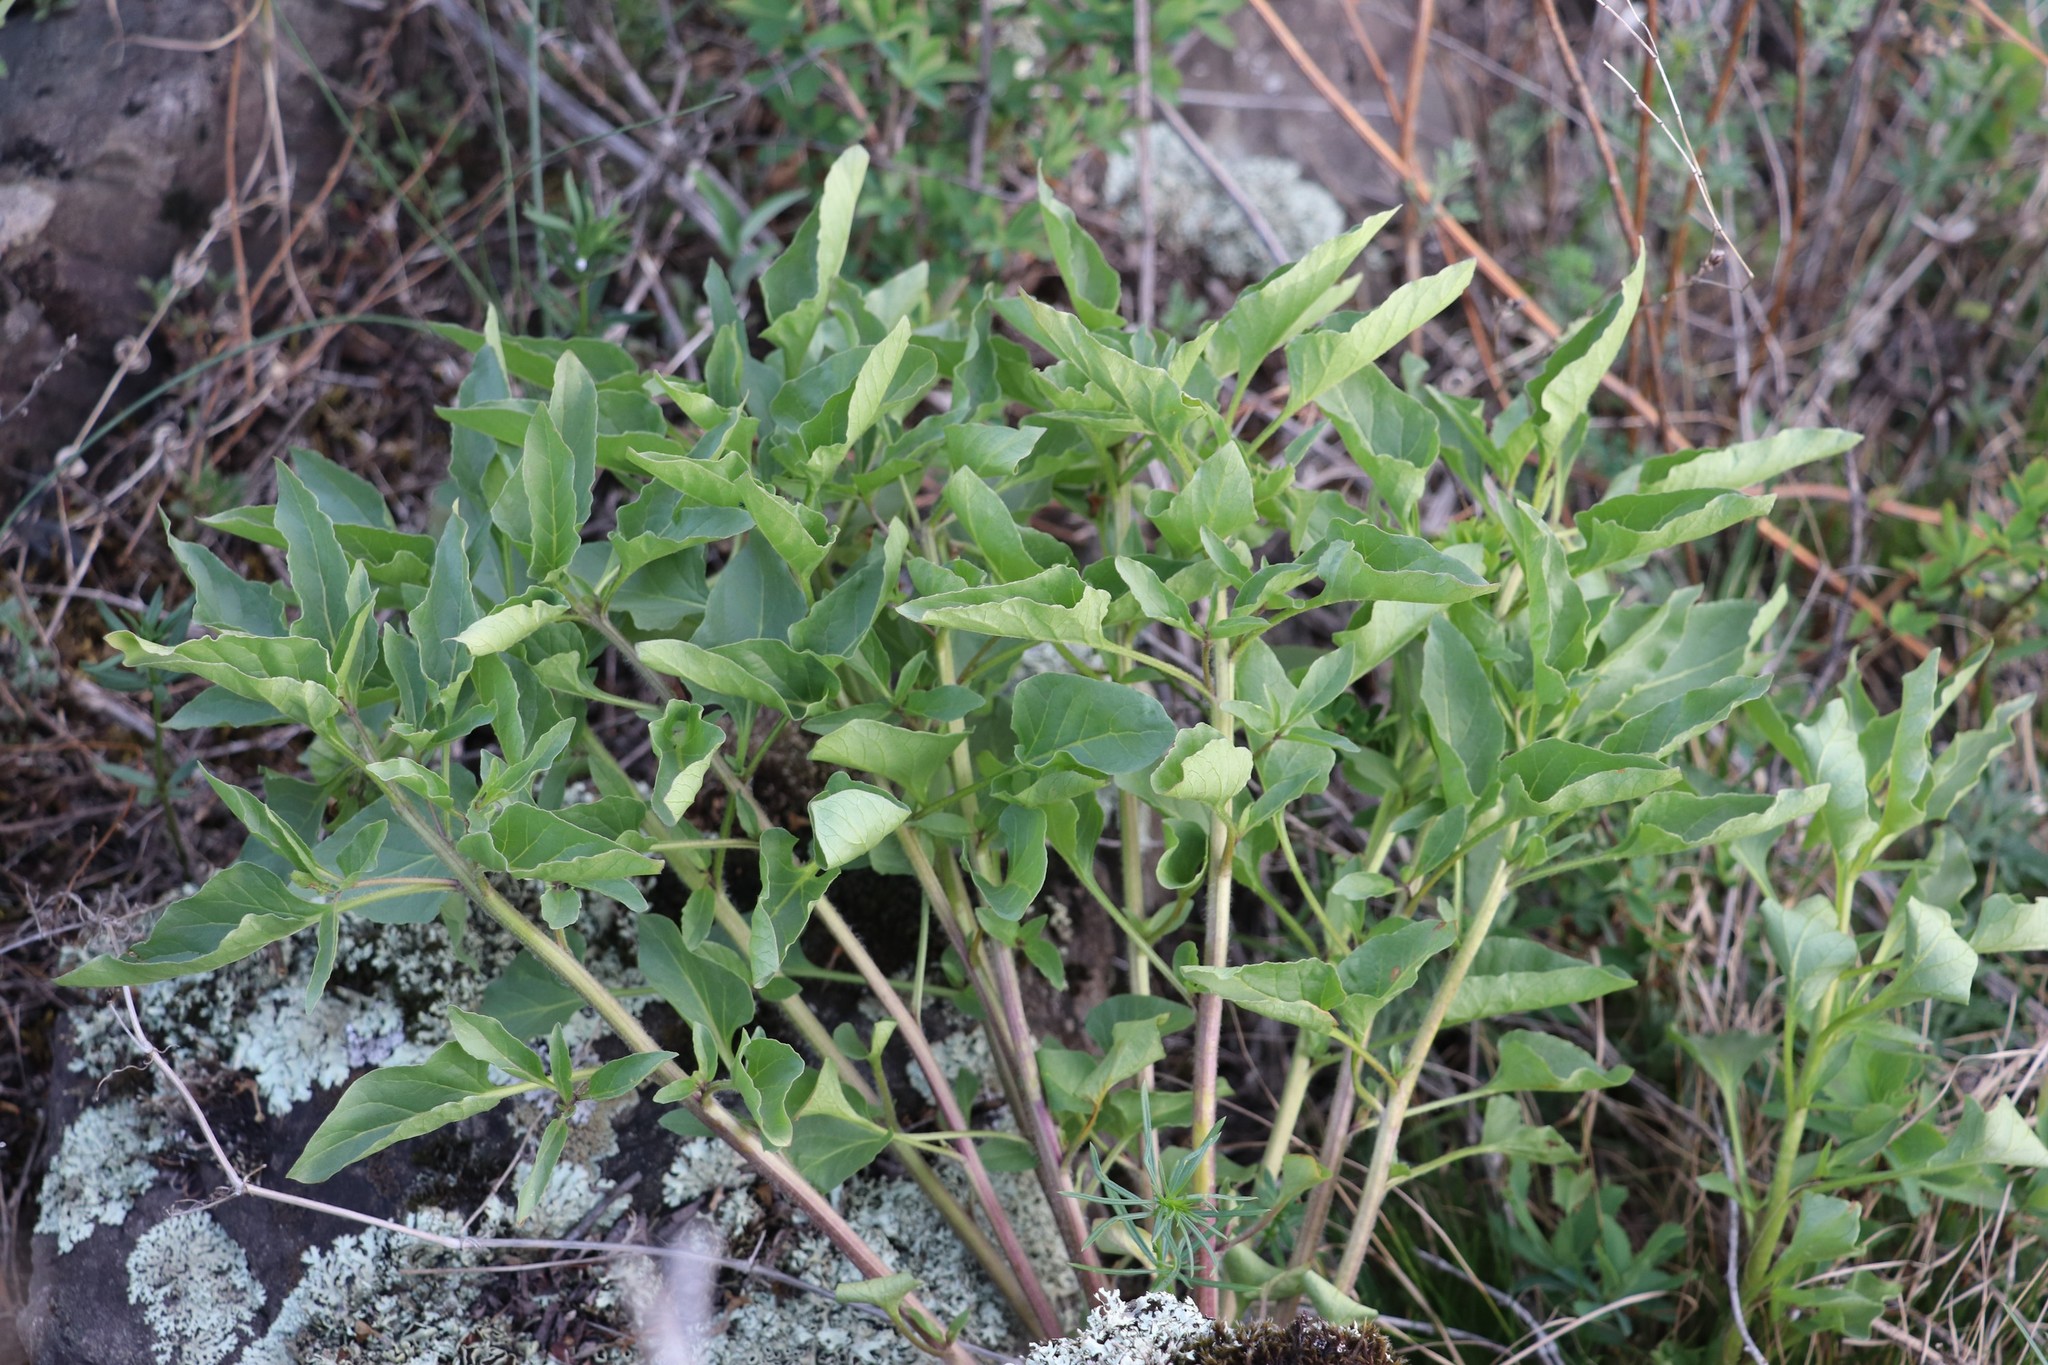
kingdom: Plantae
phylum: Tracheophyta
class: Magnoliopsida
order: Solanales
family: Solanaceae
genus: Physochlaina
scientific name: Physochlaina physaloides
